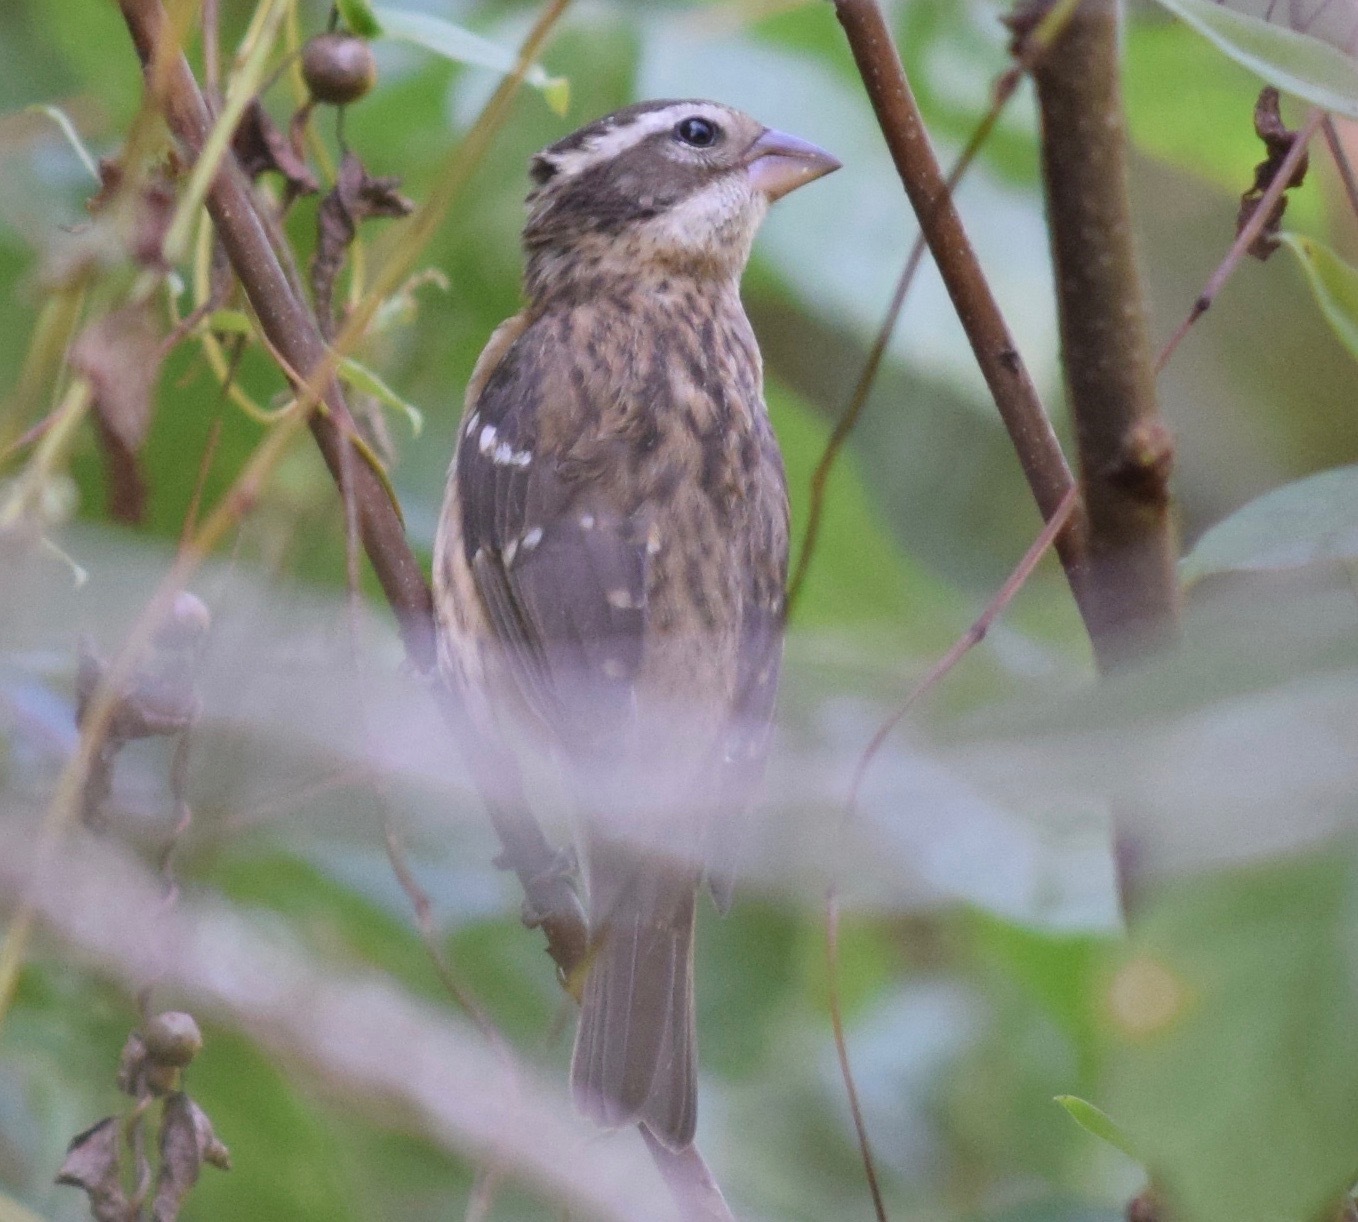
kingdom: Animalia
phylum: Chordata
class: Aves
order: Passeriformes
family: Cardinalidae
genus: Pheucticus
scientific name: Pheucticus ludovicianus
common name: Rose-breasted grosbeak
